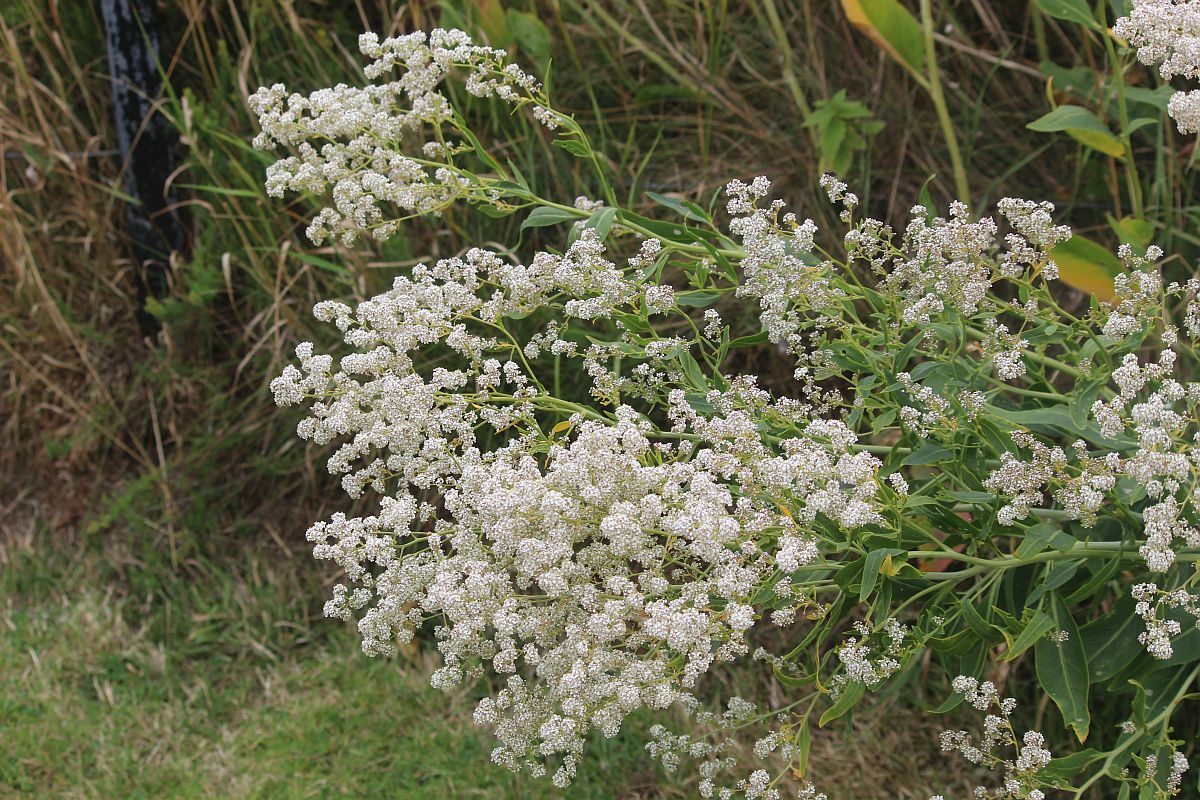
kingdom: Plantae
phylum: Tracheophyta
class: Magnoliopsida
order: Brassicales
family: Brassicaceae
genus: Lepidium
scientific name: Lepidium latifolium
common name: Dittander
